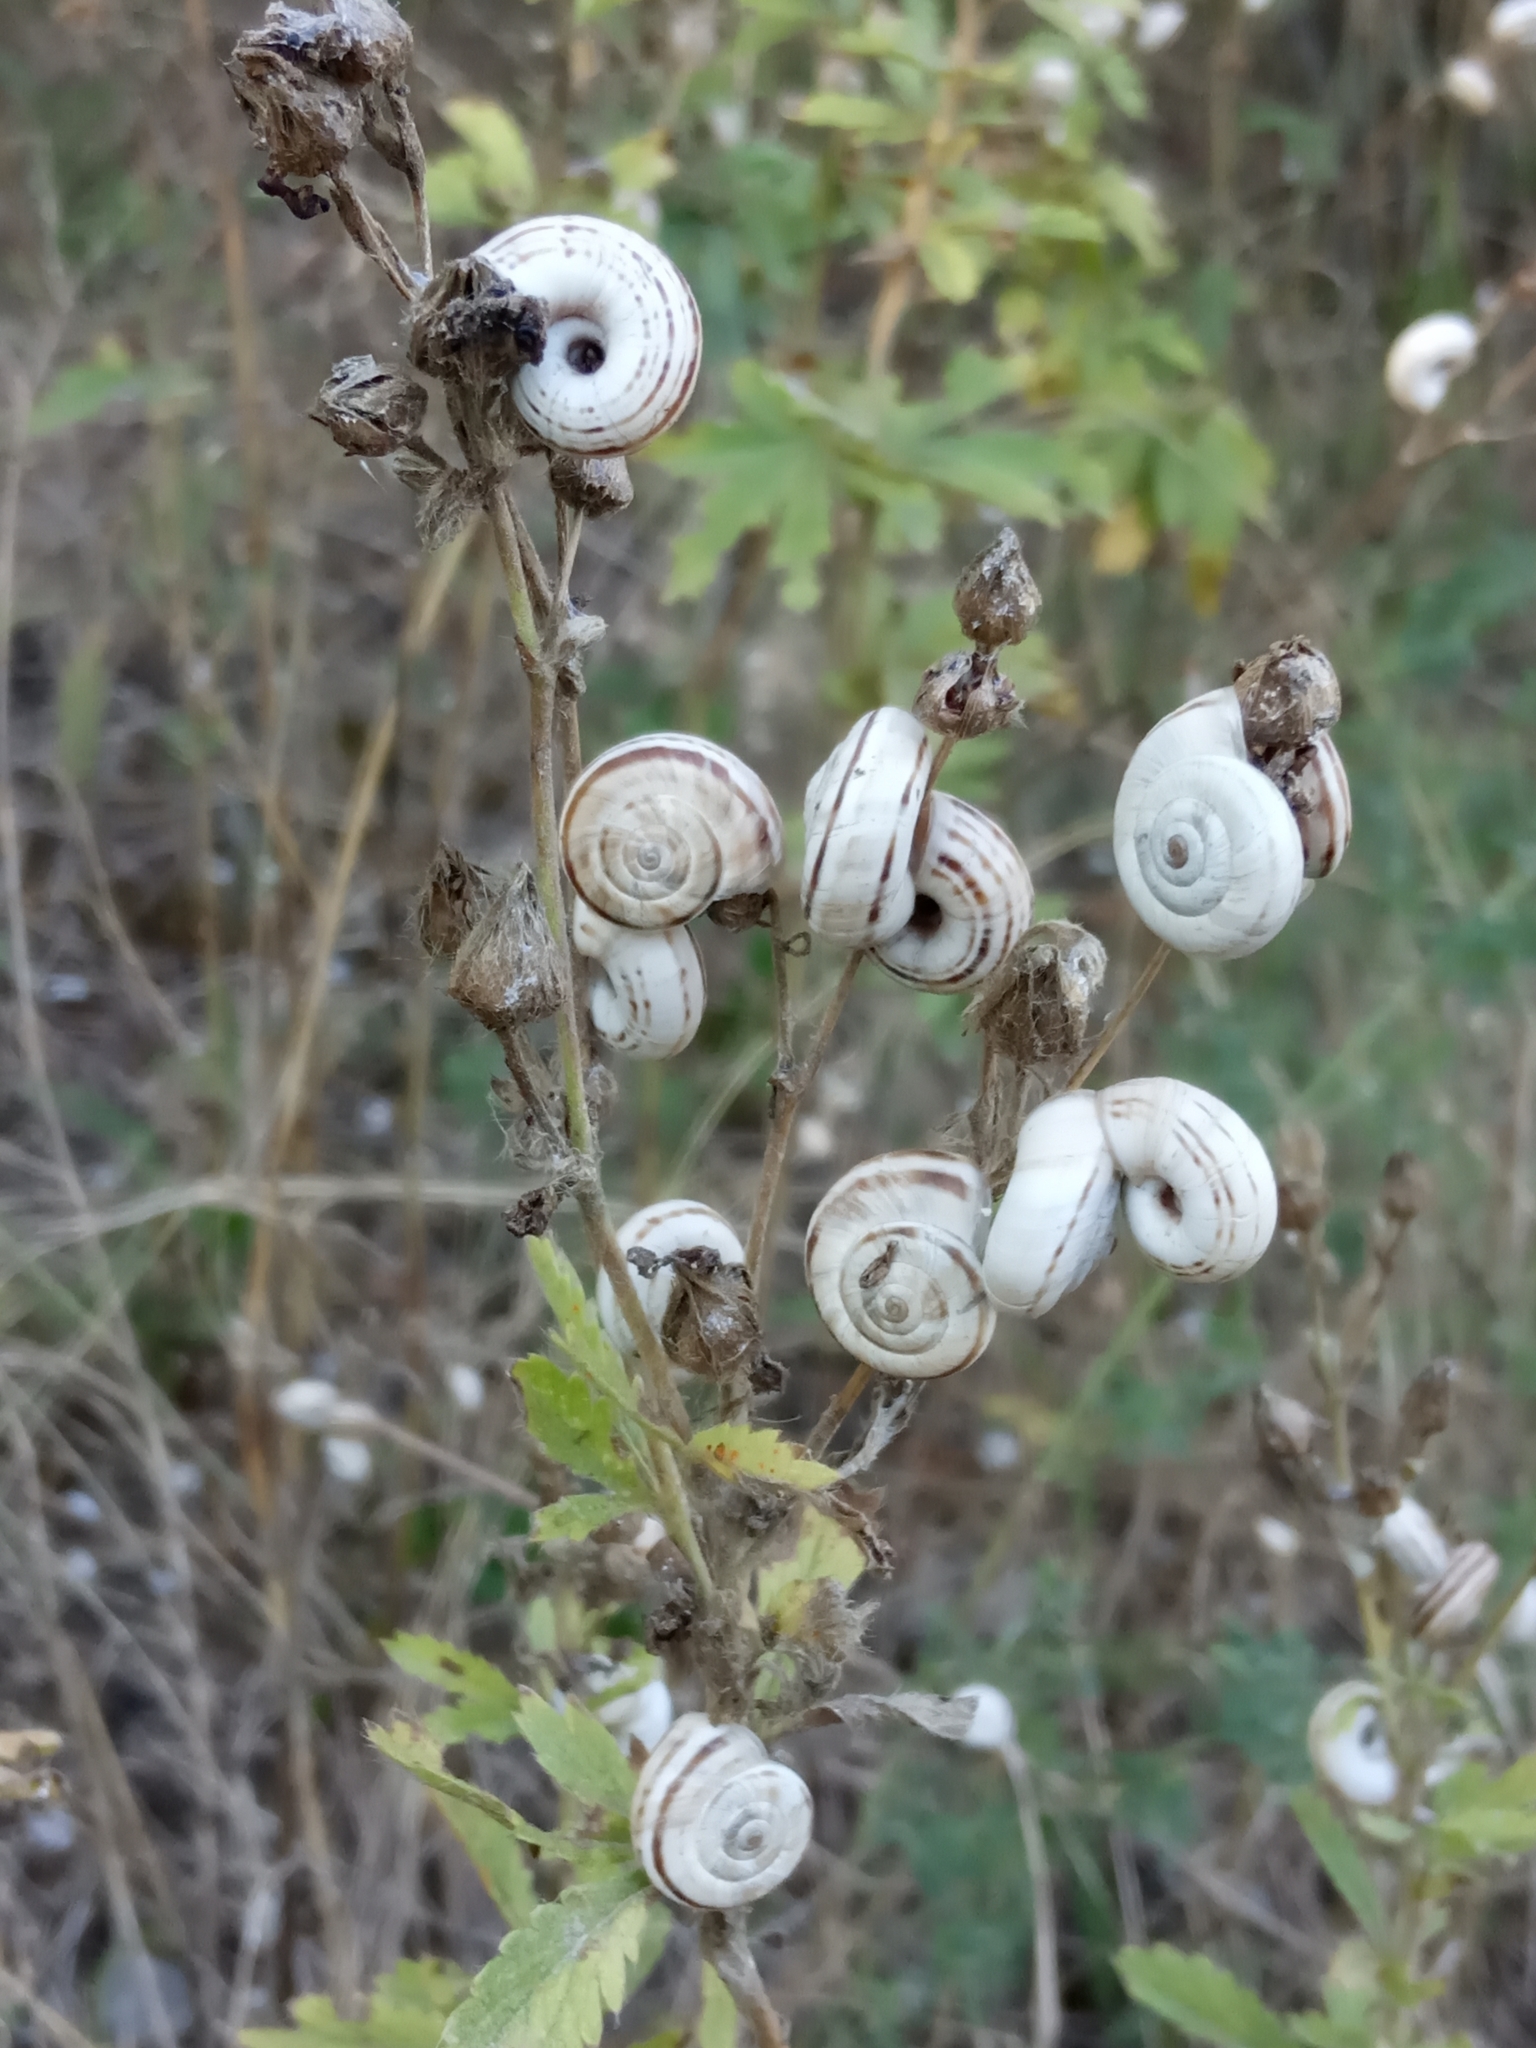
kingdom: Animalia
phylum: Mollusca
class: Gastropoda
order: Stylommatophora
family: Geomitridae
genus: Xeropicta
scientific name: Xeropicta derbentina
